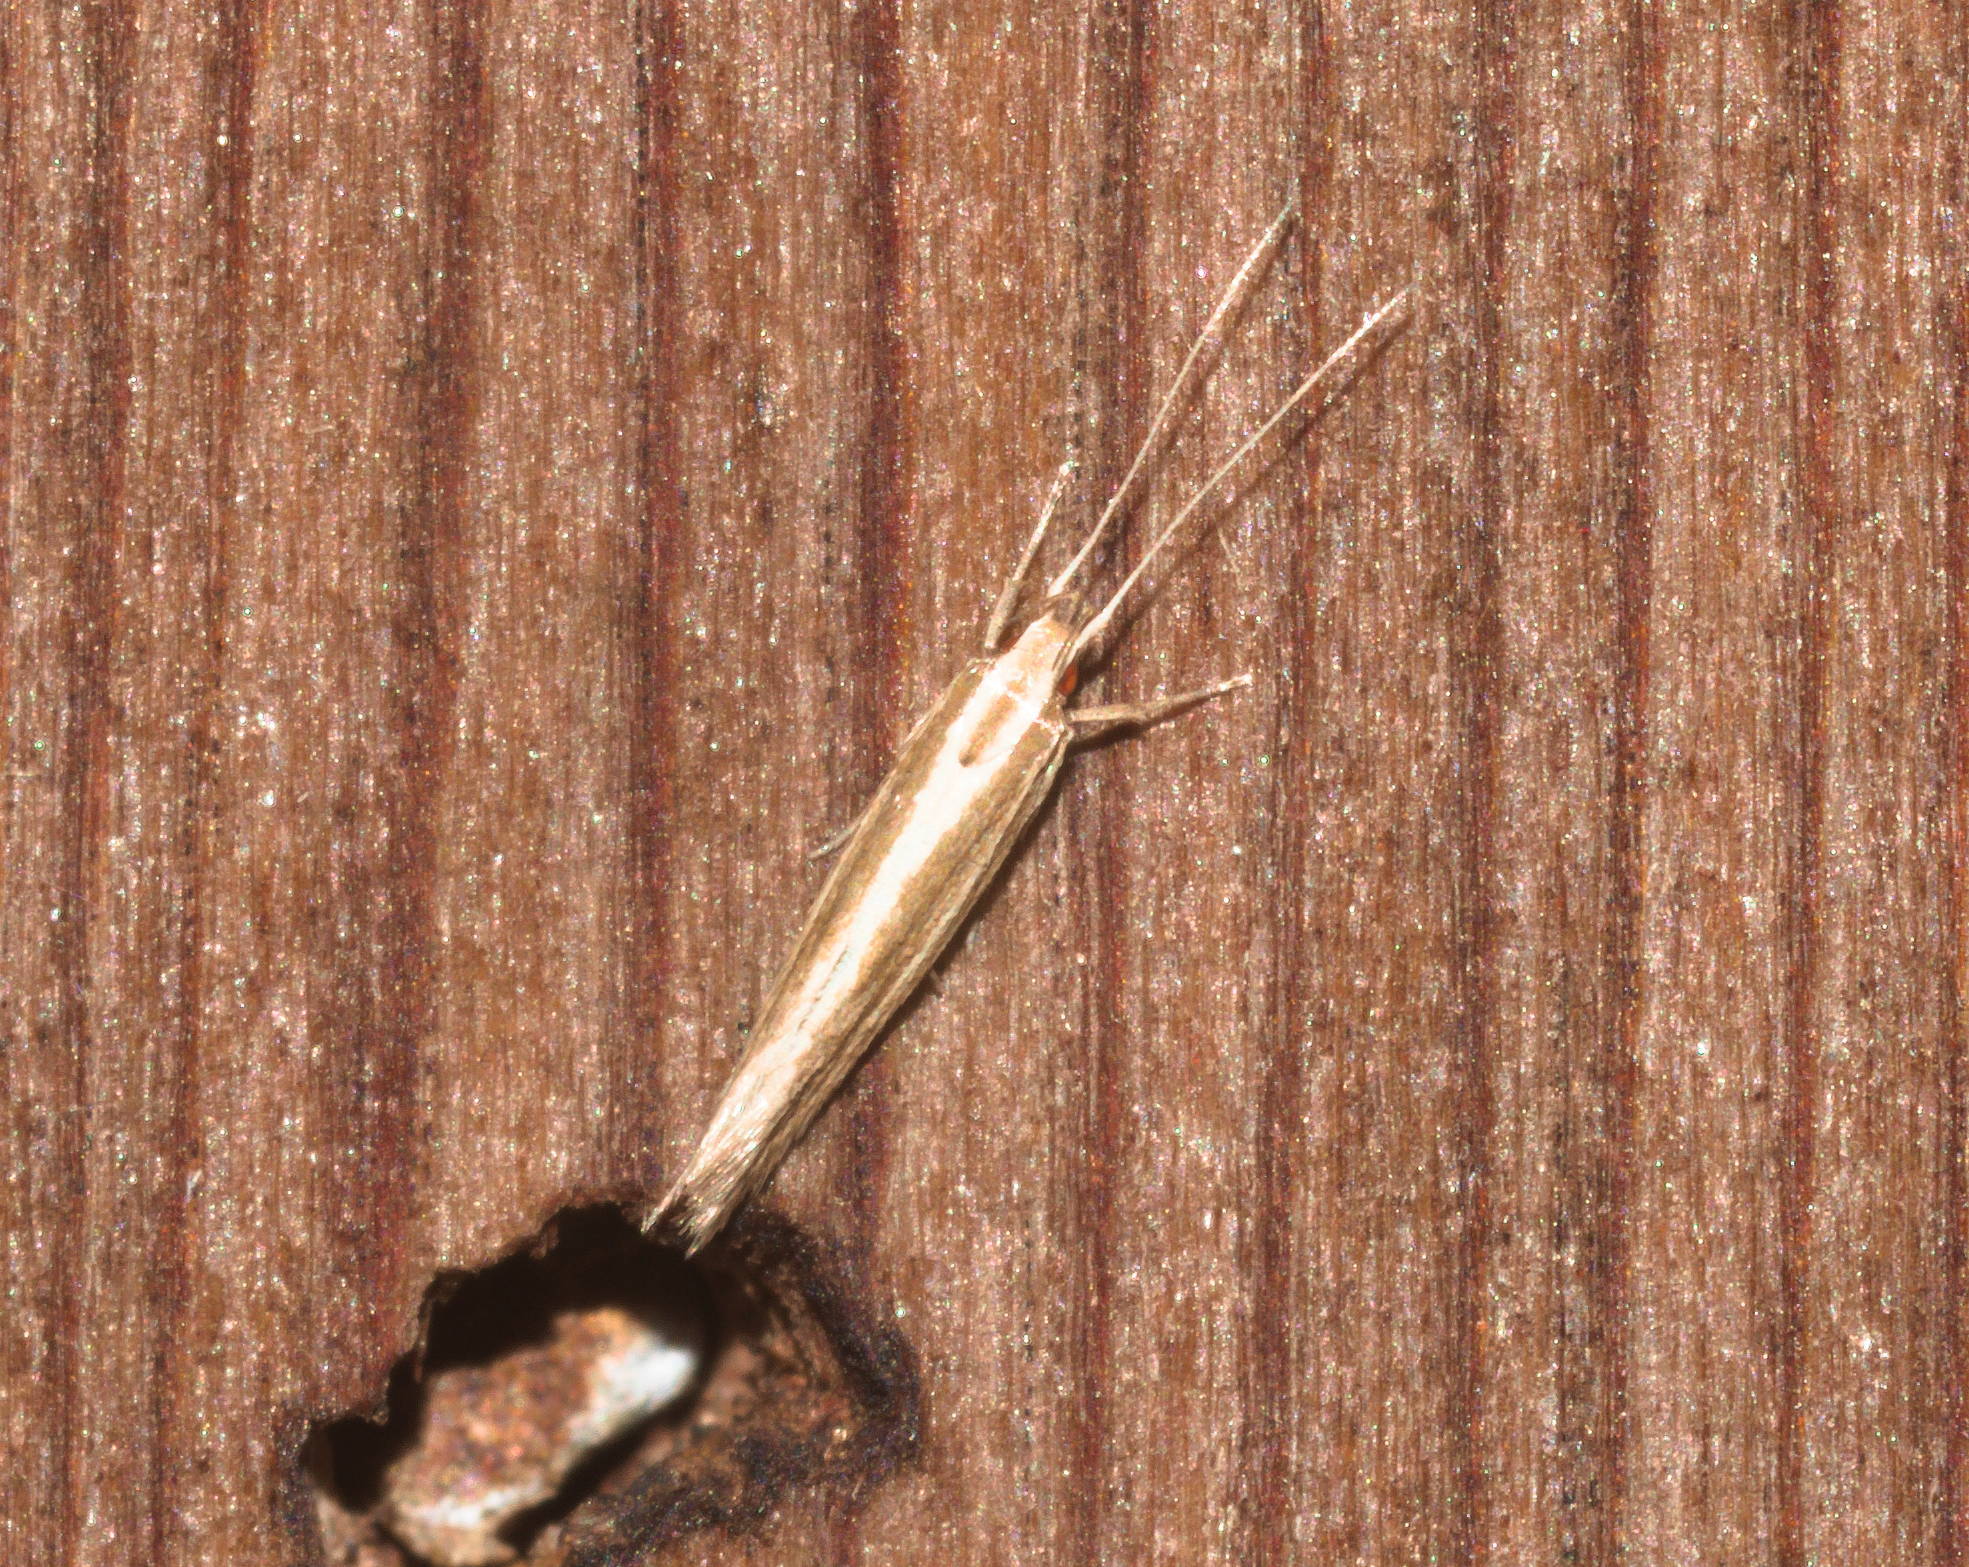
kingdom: Animalia
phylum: Arthropoda
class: Insecta
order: Lepidoptera
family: Cosmopterigidae
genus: Asymphorodes
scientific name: Asymphorodes
